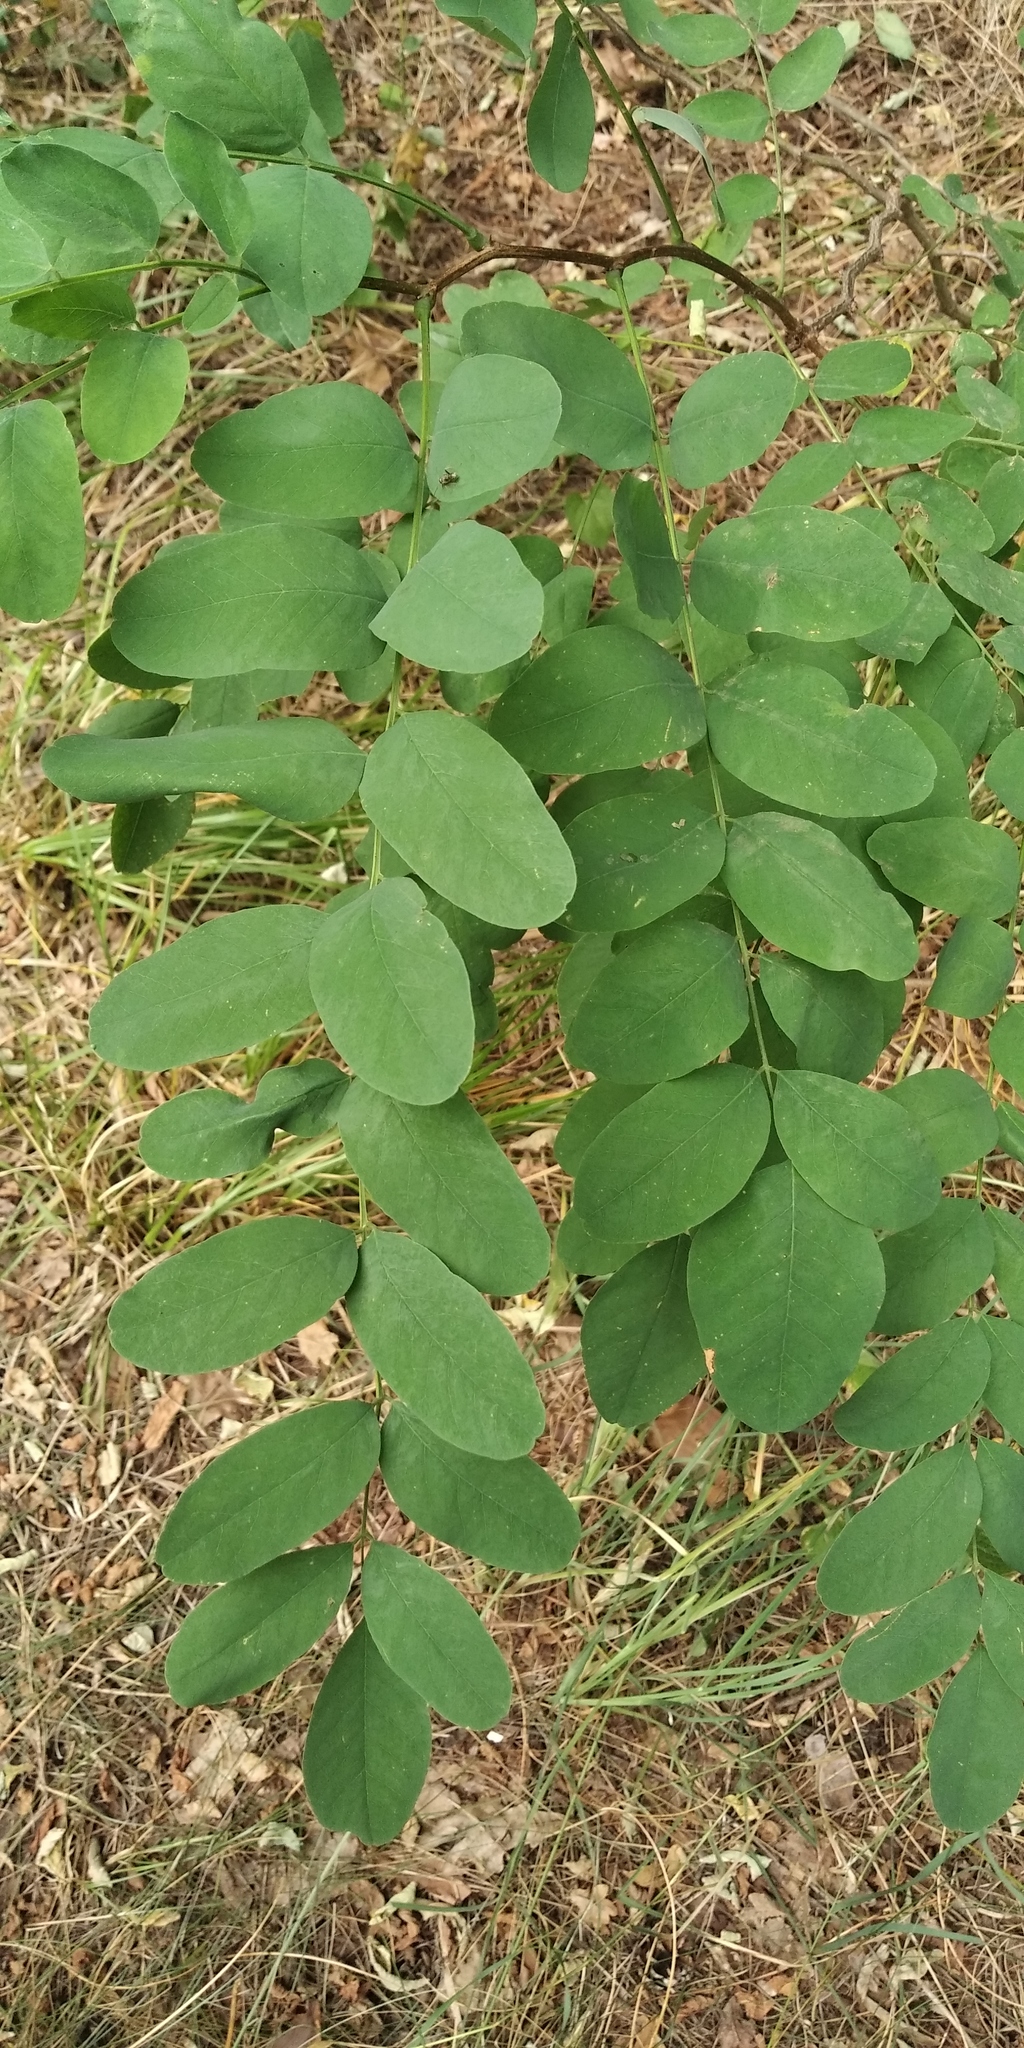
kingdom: Plantae
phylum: Tracheophyta
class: Magnoliopsida
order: Fabales
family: Fabaceae
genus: Robinia
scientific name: Robinia pseudoacacia
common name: Black locust
